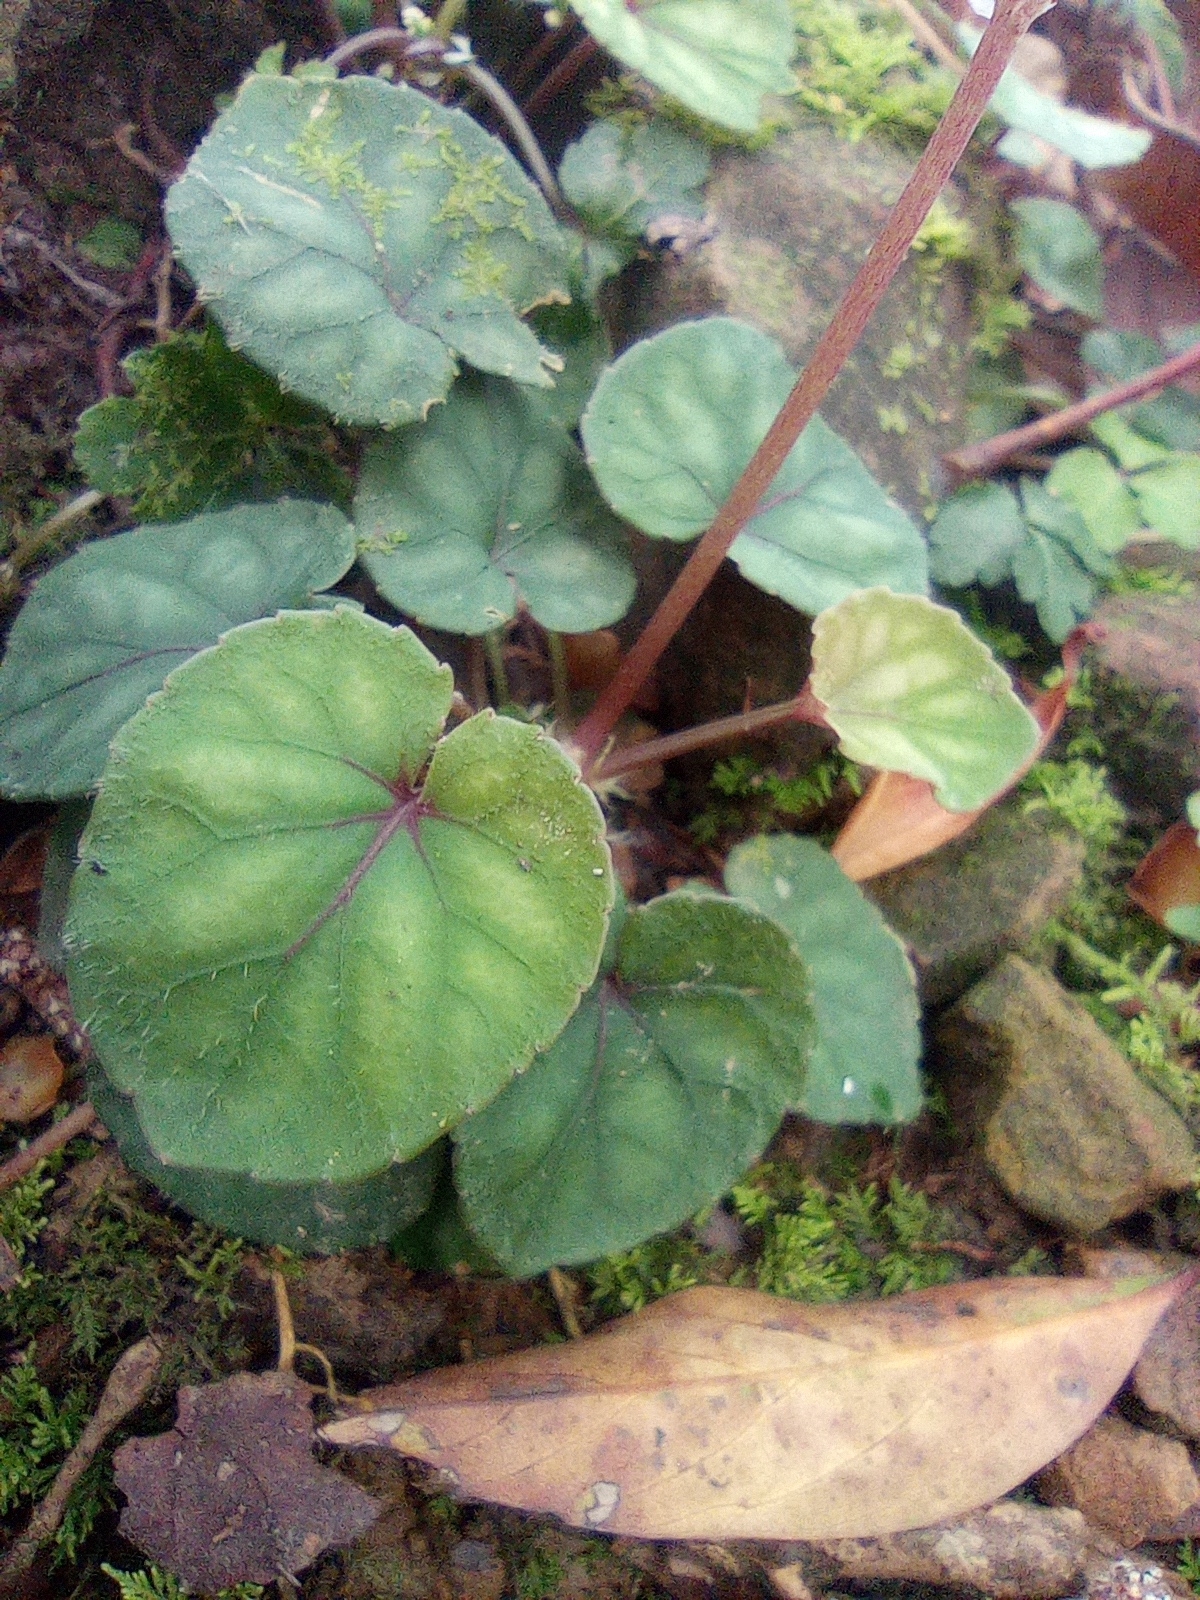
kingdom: Plantae
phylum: Tracheophyta
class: Magnoliopsida
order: Malpighiales
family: Violaceae
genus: Viola
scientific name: Viola formosana
